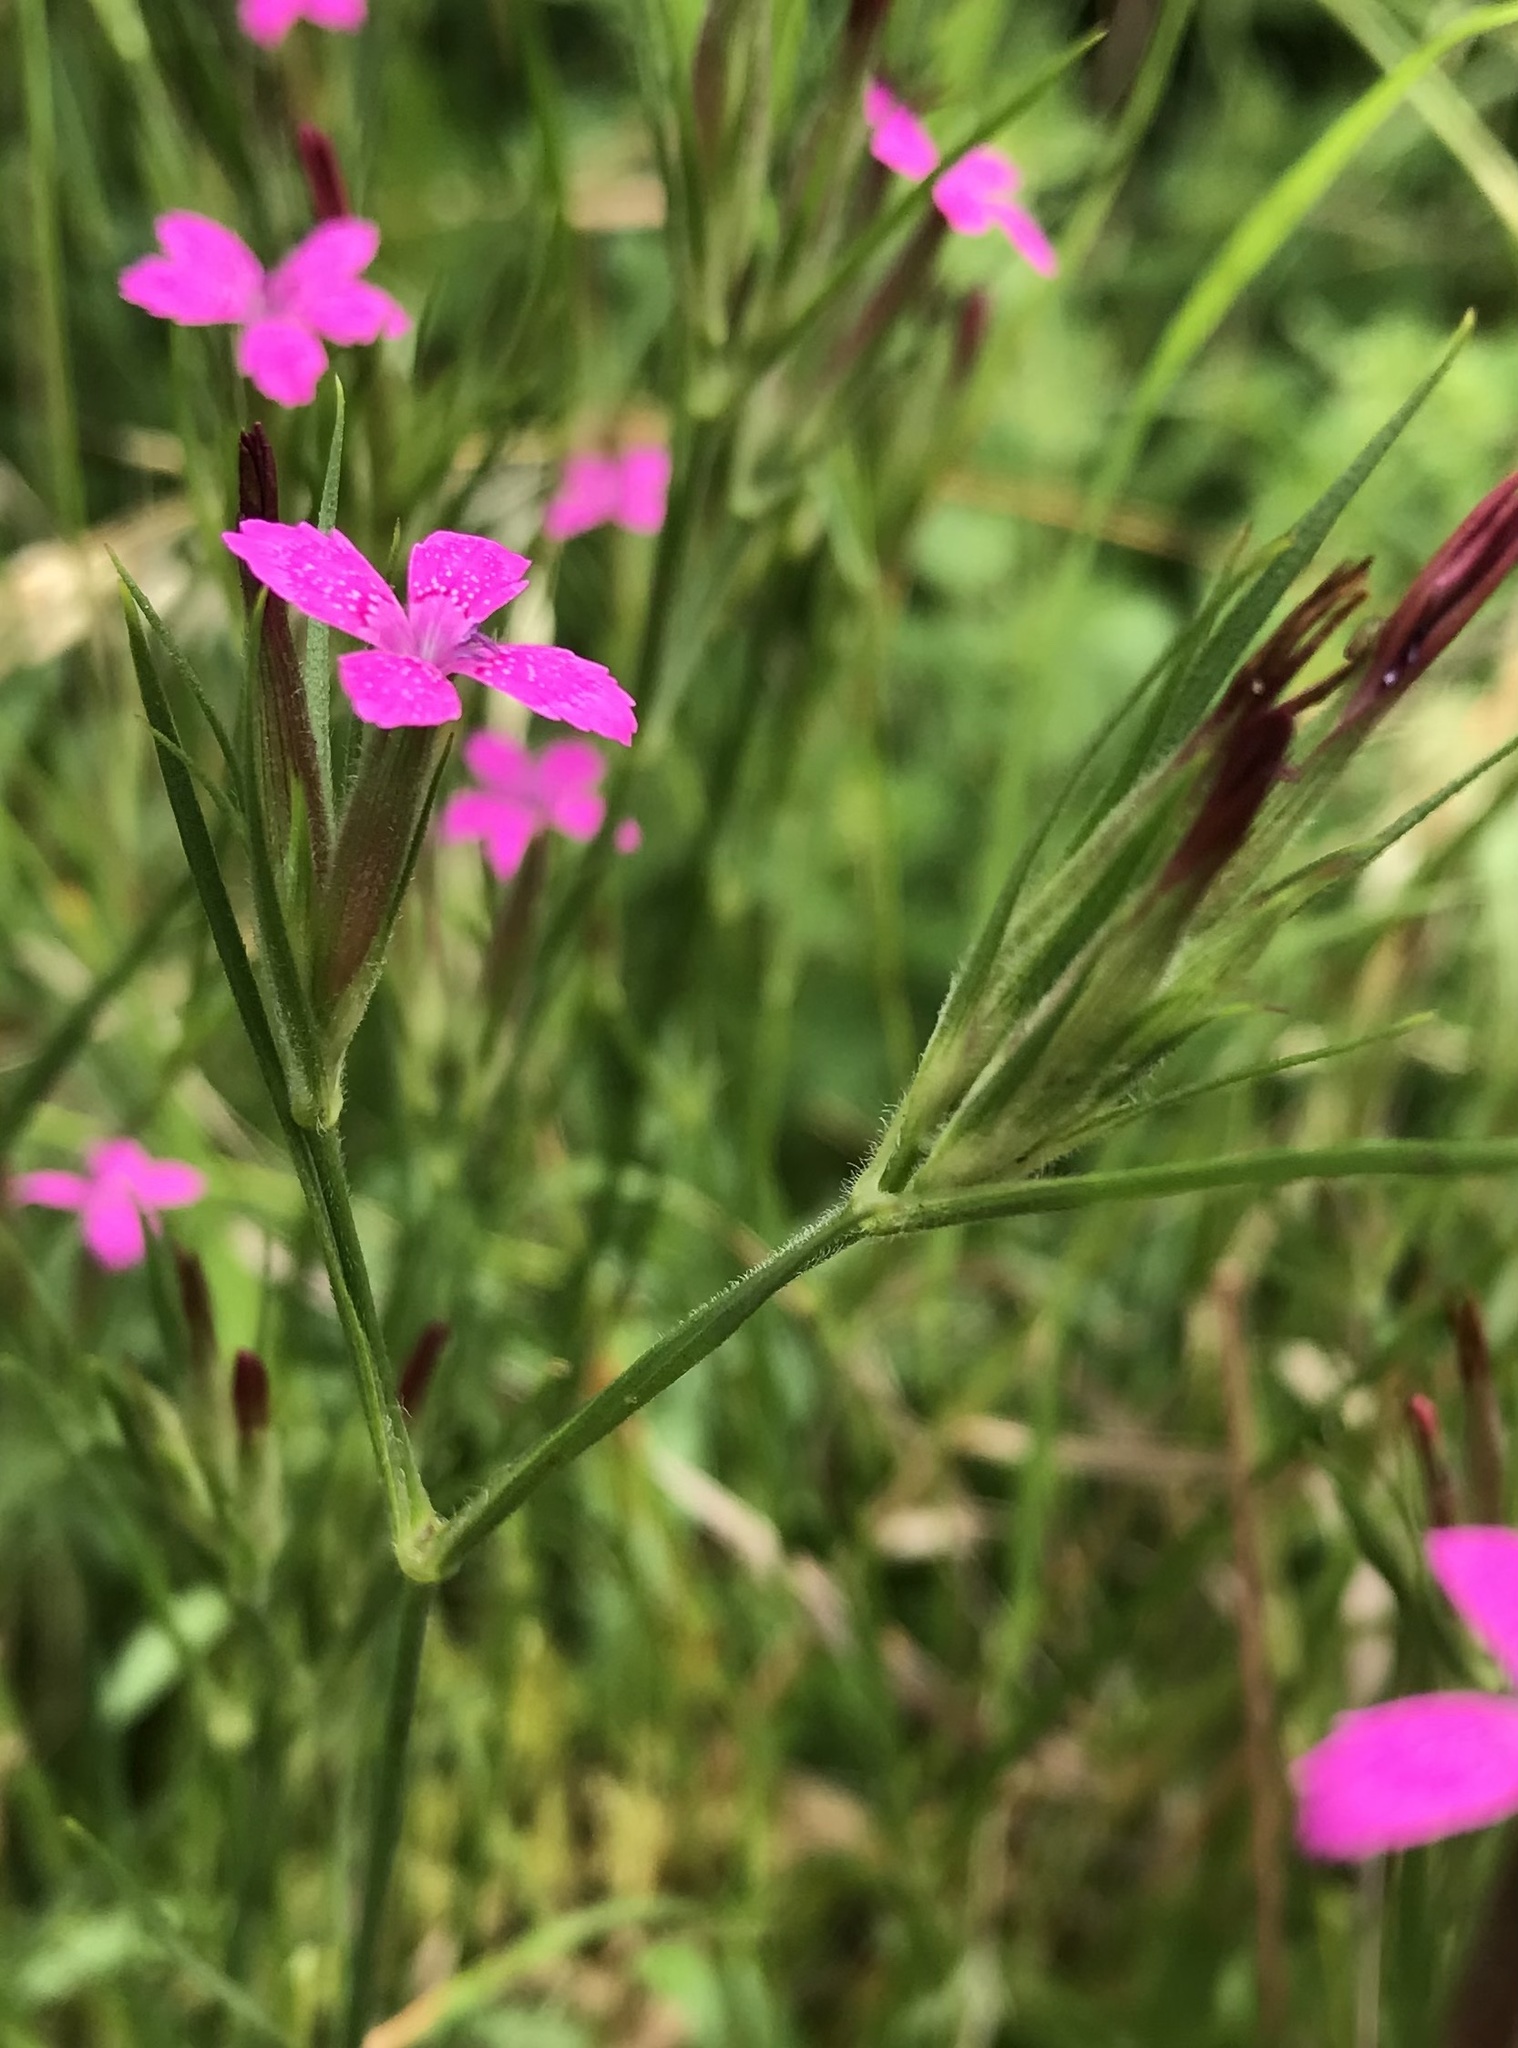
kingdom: Plantae
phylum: Tracheophyta
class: Magnoliopsida
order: Caryophyllales
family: Caryophyllaceae
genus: Dianthus
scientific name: Dianthus armeria
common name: Deptford pink
